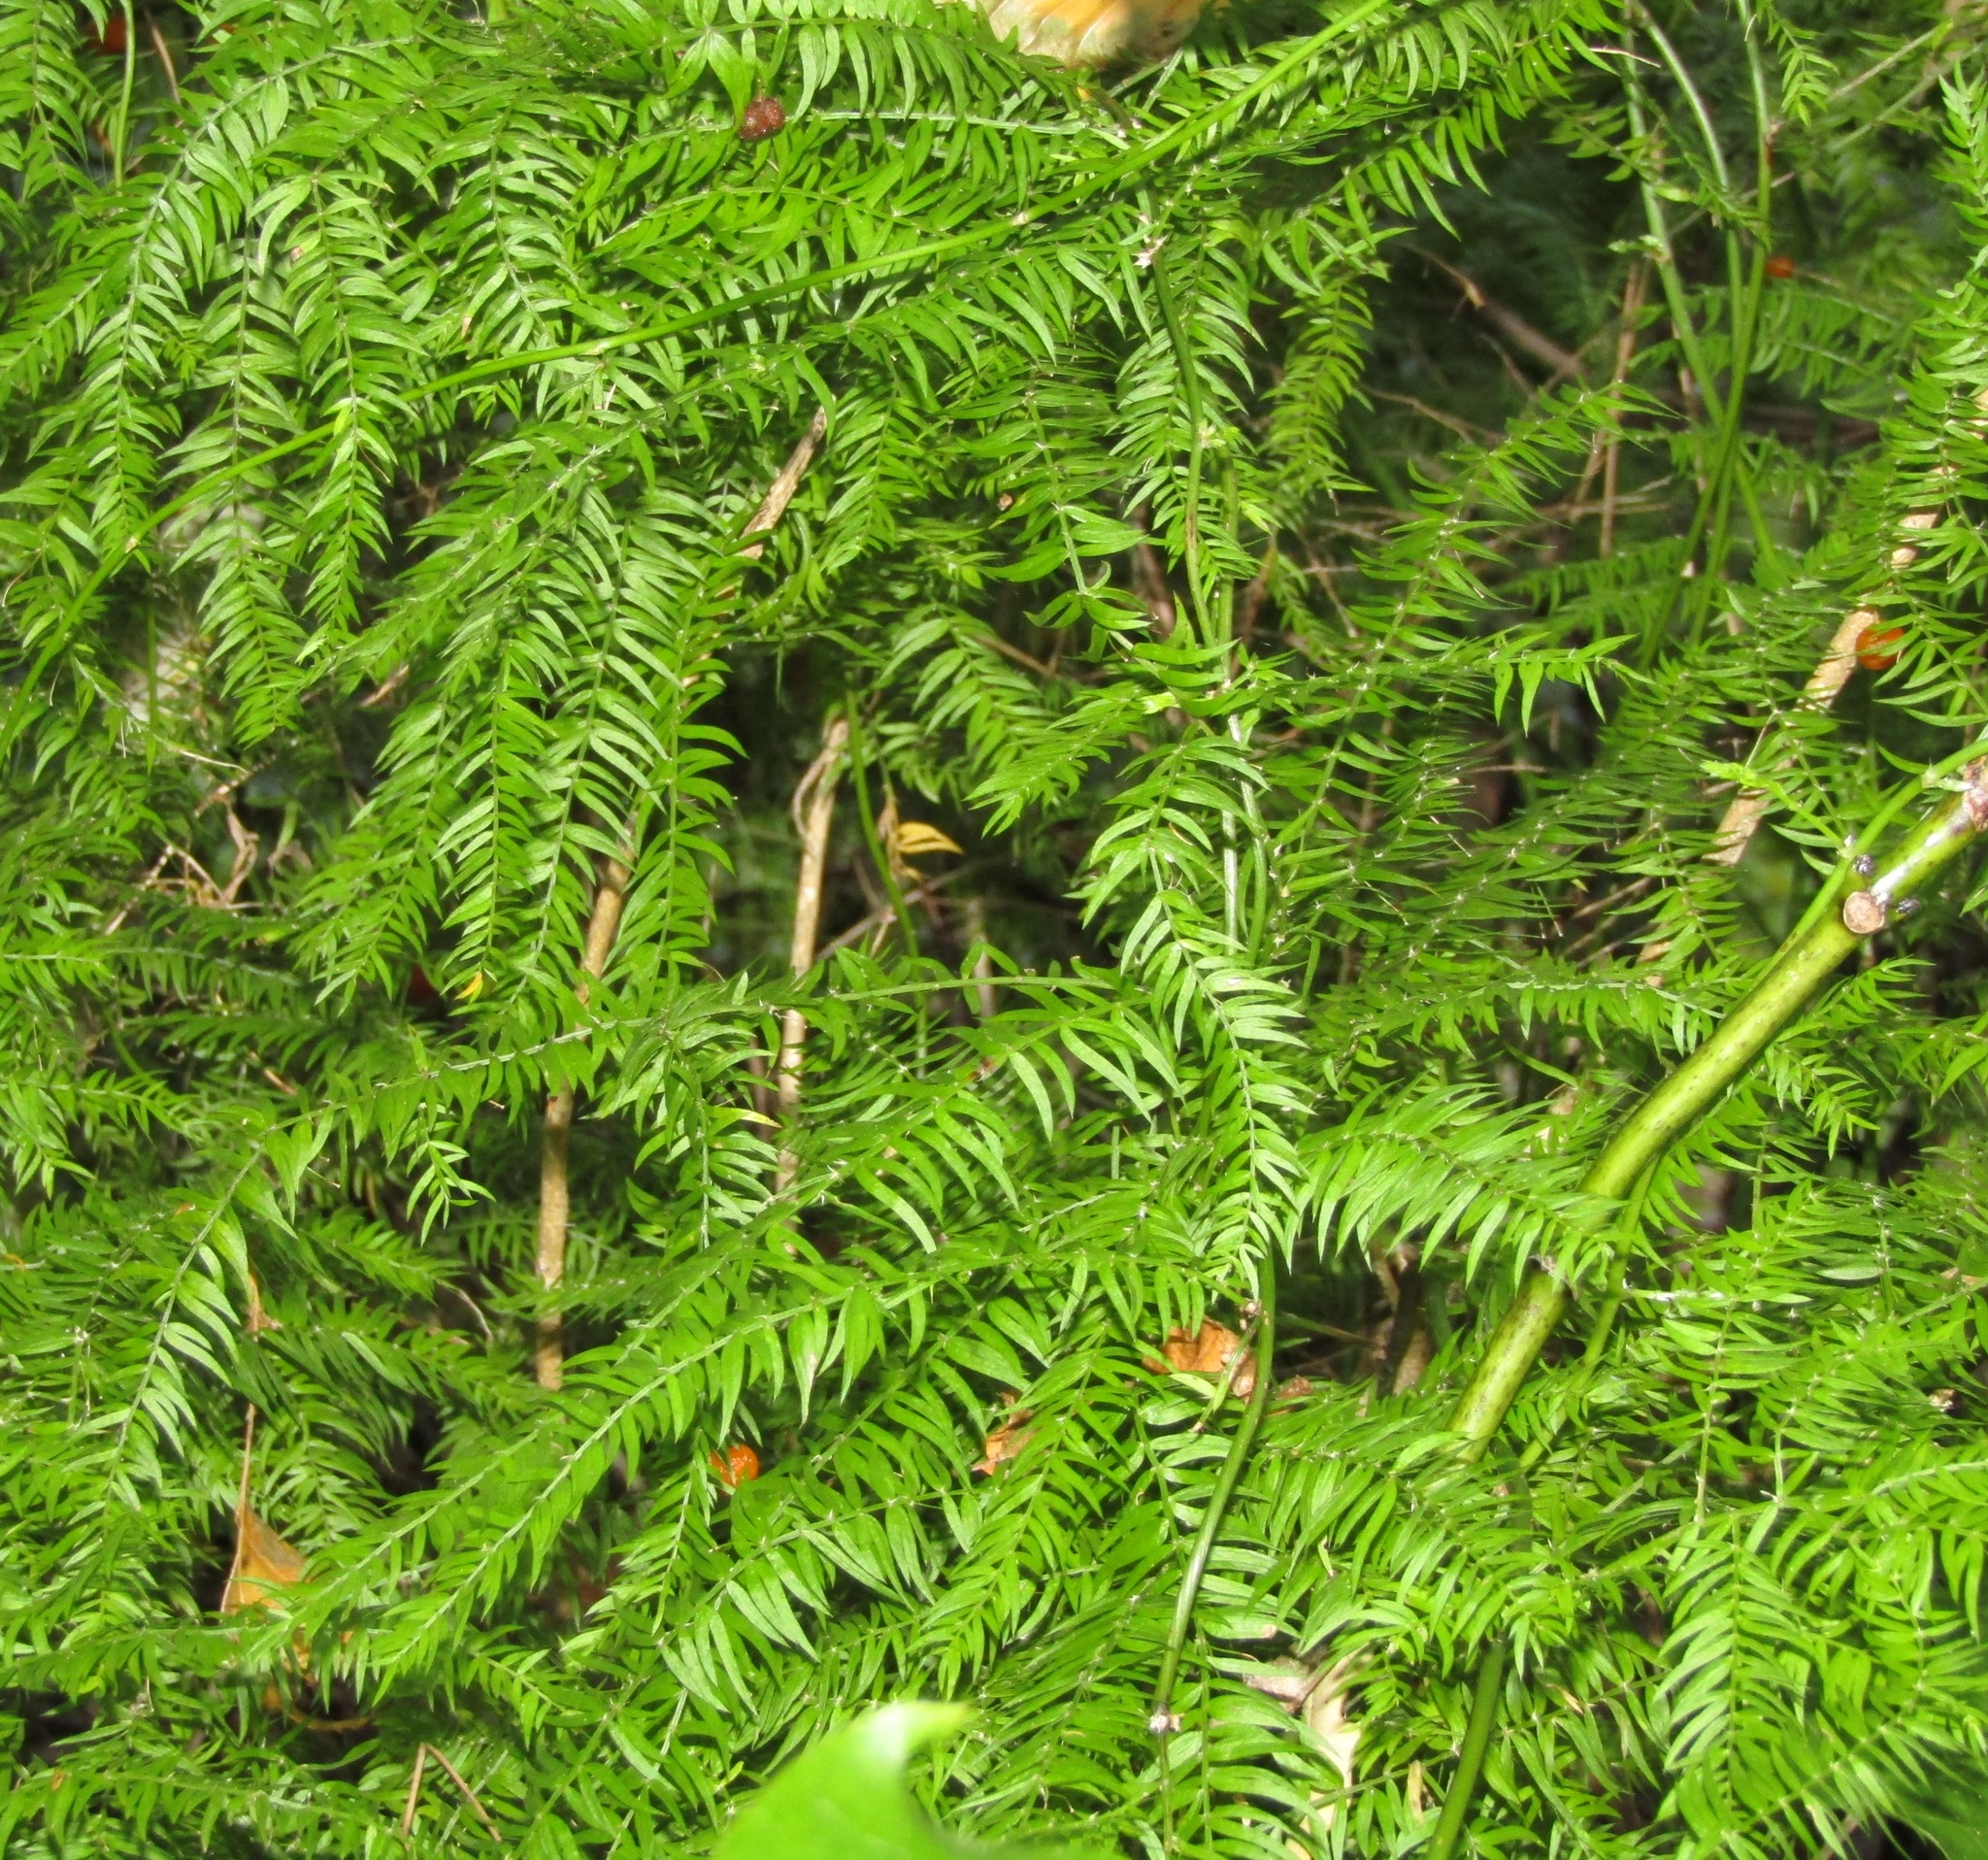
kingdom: Plantae
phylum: Tracheophyta
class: Liliopsida
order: Asparagales
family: Asparagaceae
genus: Asparagus
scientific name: Asparagus scandens
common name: Asparagus-fern
